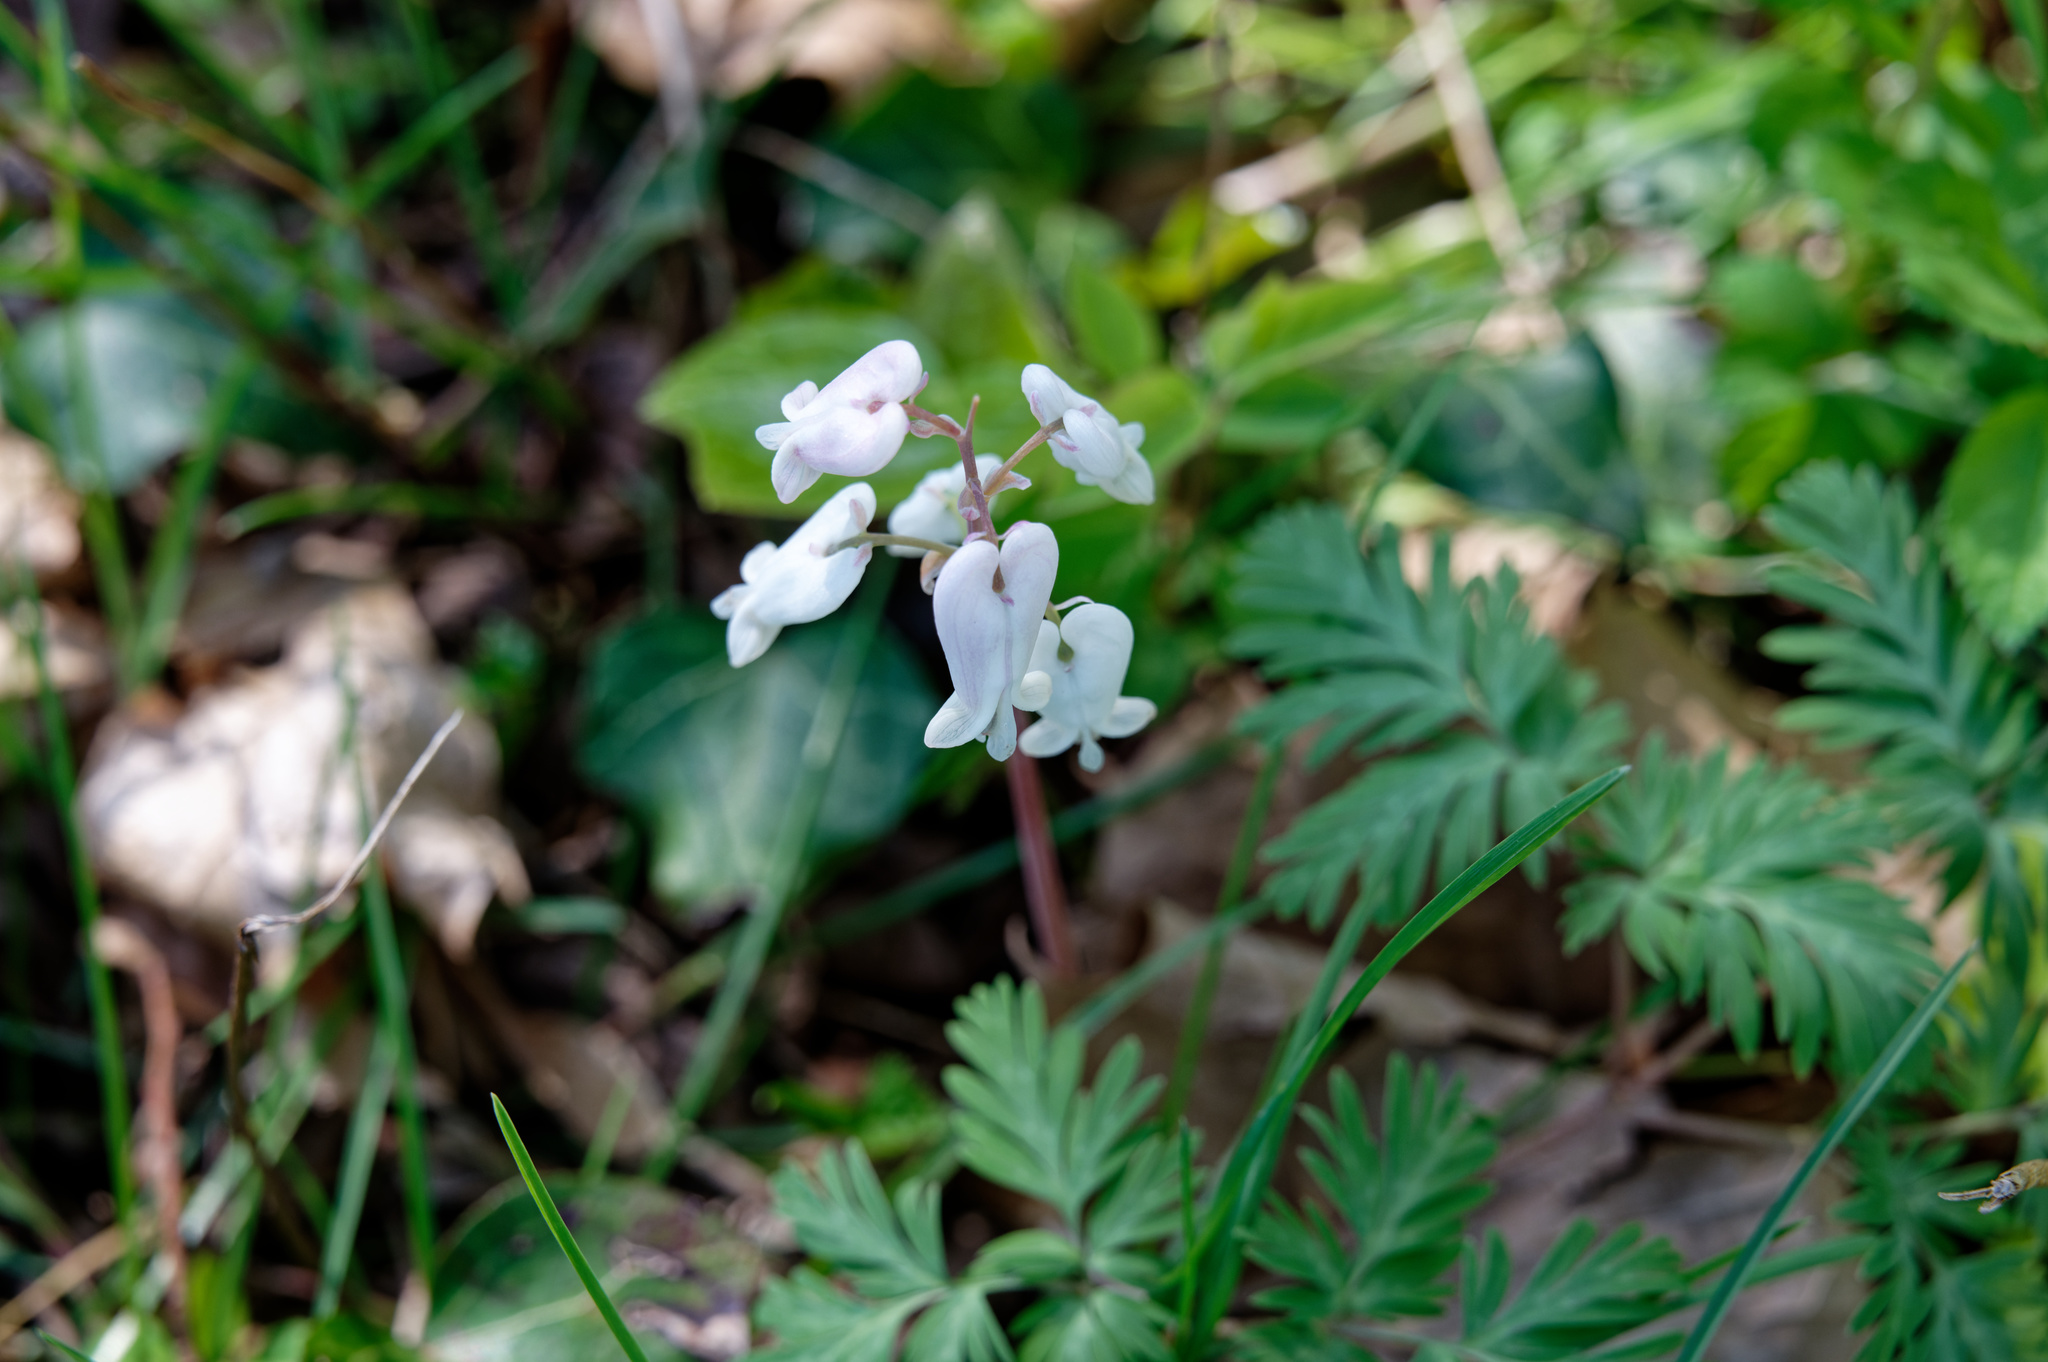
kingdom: Plantae
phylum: Tracheophyta
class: Magnoliopsida
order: Ranunculales
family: Papaveraceae
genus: Dicentra
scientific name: Dicentra canadensis
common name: Squirrel-corn
